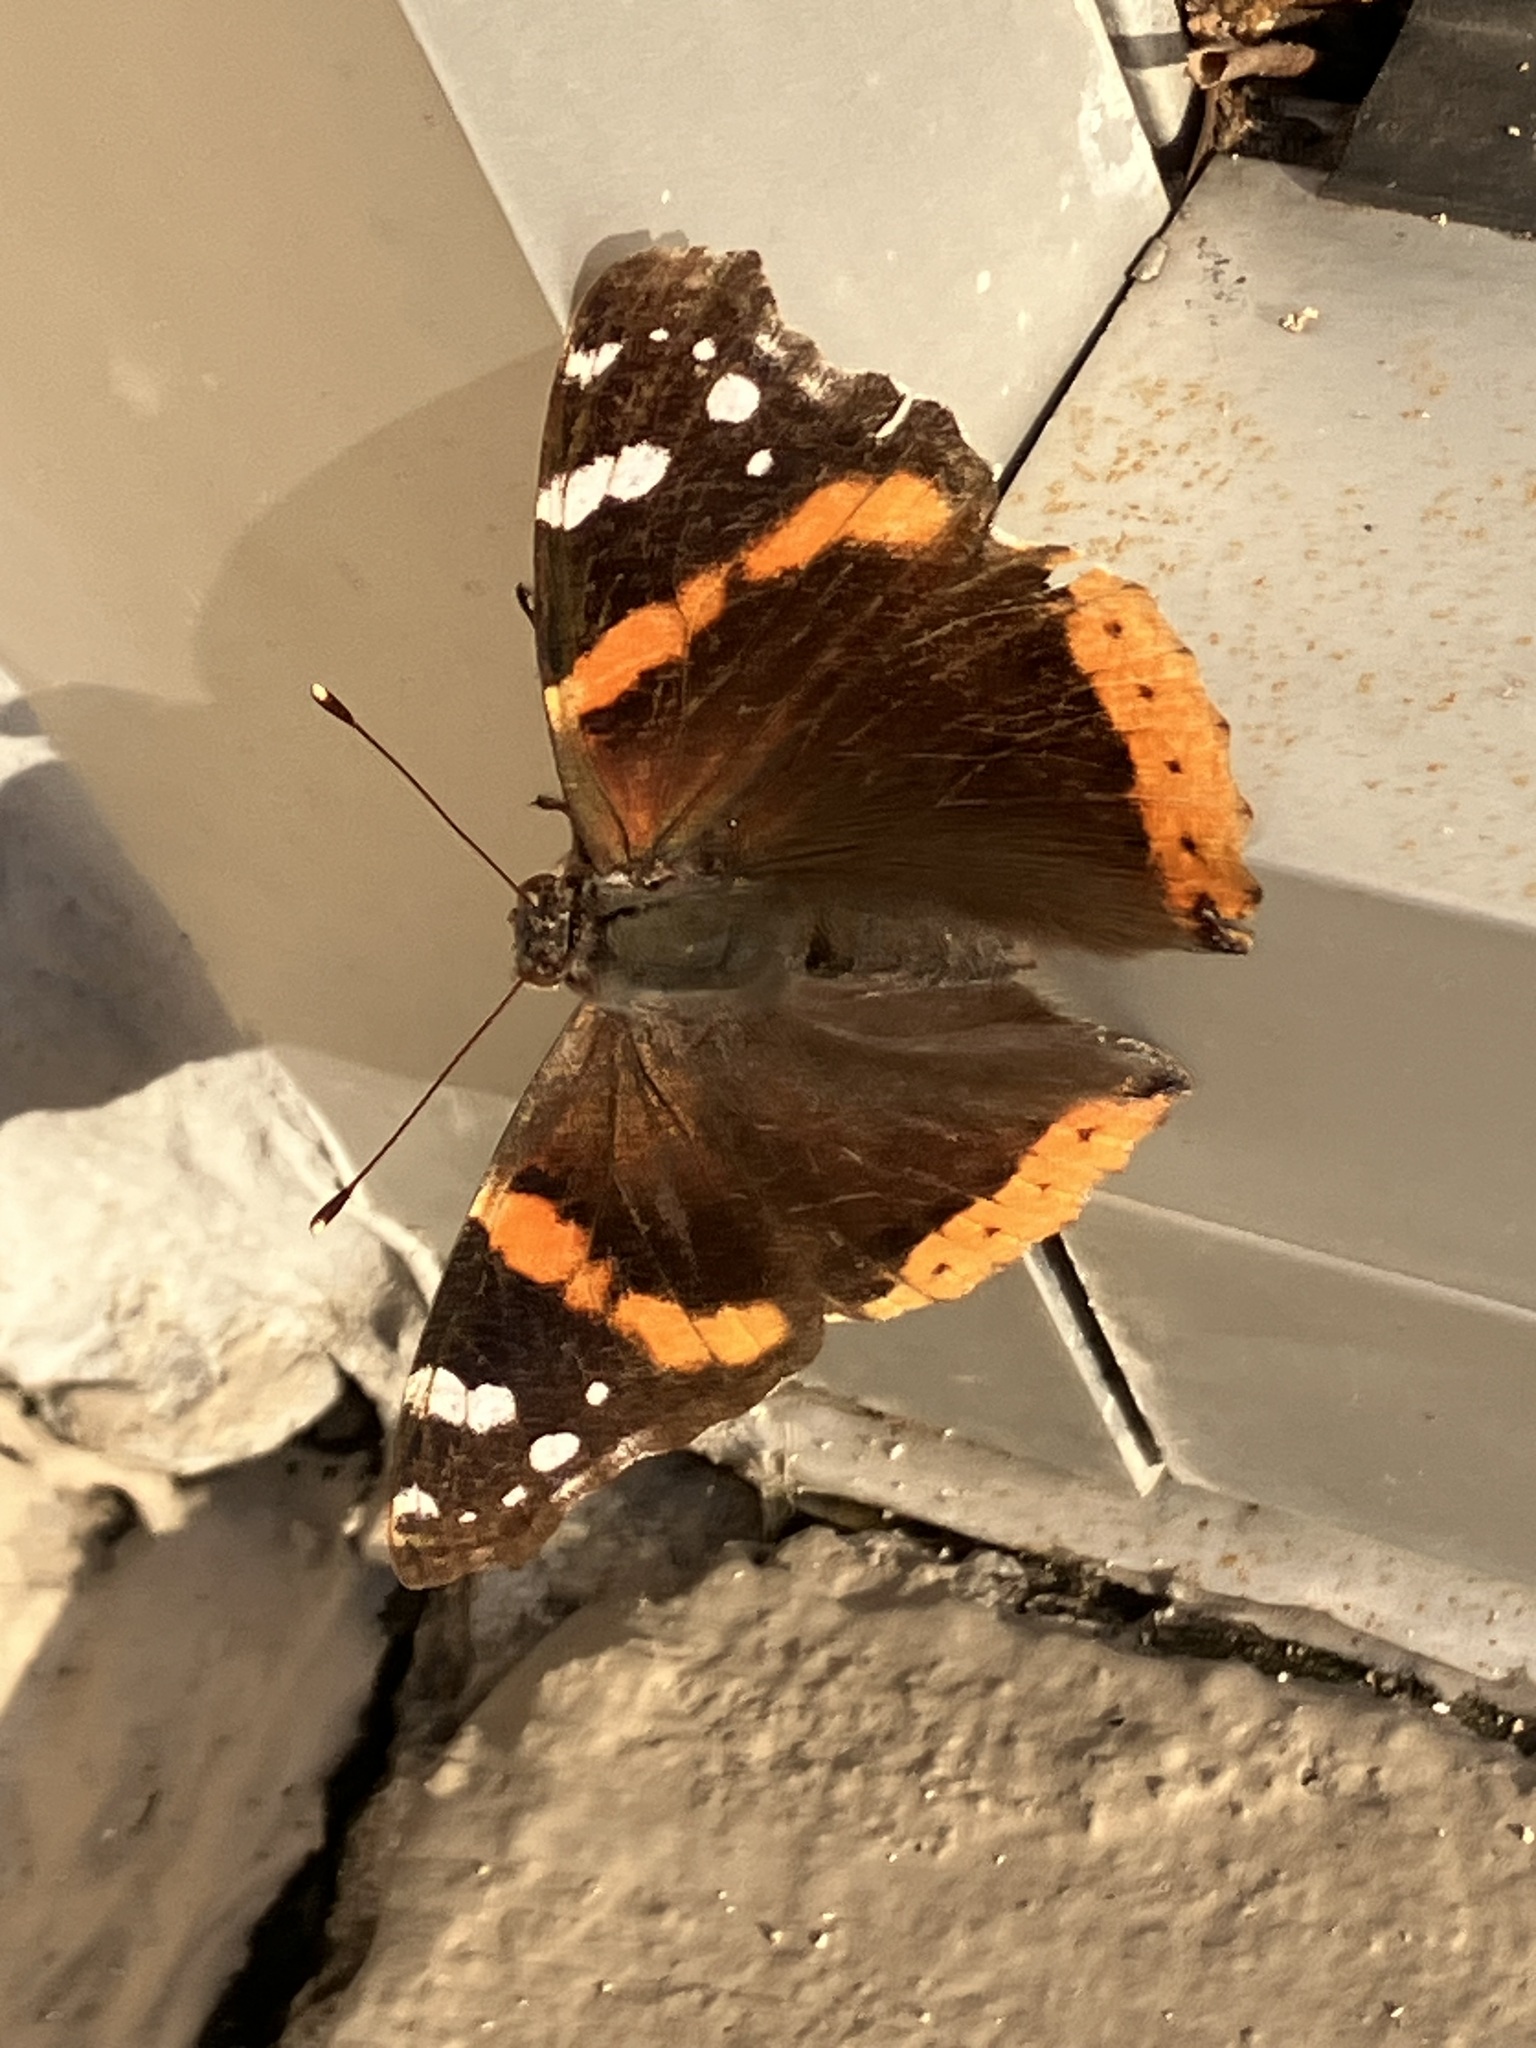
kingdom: Animalia
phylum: Arthropoda
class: Insecta
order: Lepidoptera
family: Nymphalidae
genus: Vanessa
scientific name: Vanessa atalanta
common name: Red admiral
